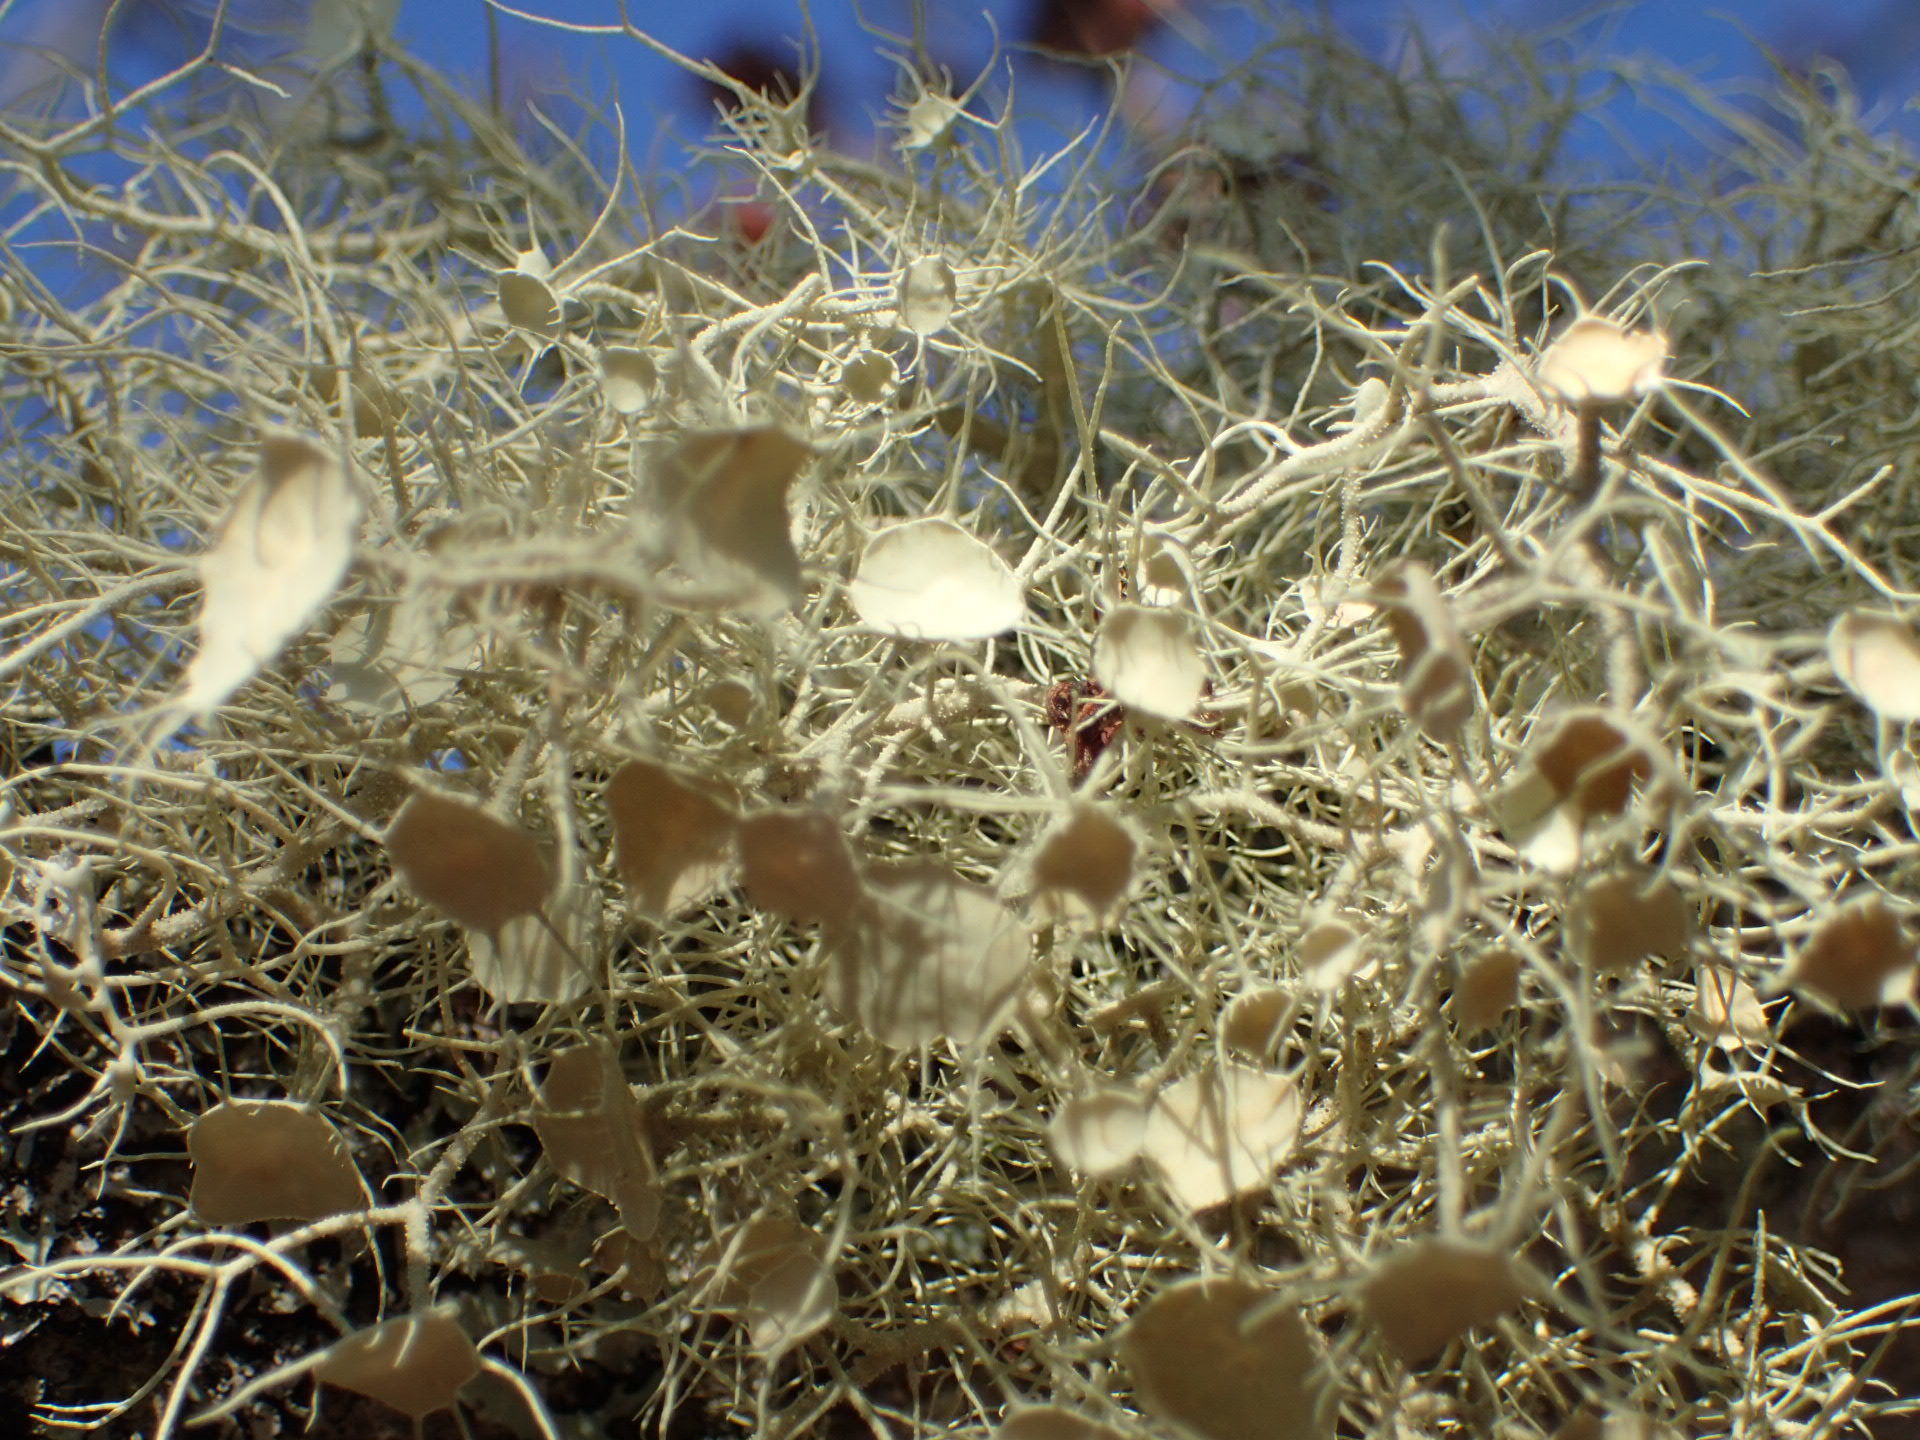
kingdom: Fungi
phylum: Ascomycota
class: Lecanoromycetes
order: Lecanorales
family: Parmeliaceae
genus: Usnea
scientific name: Usnea strigosa
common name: Bushy beard lichen
